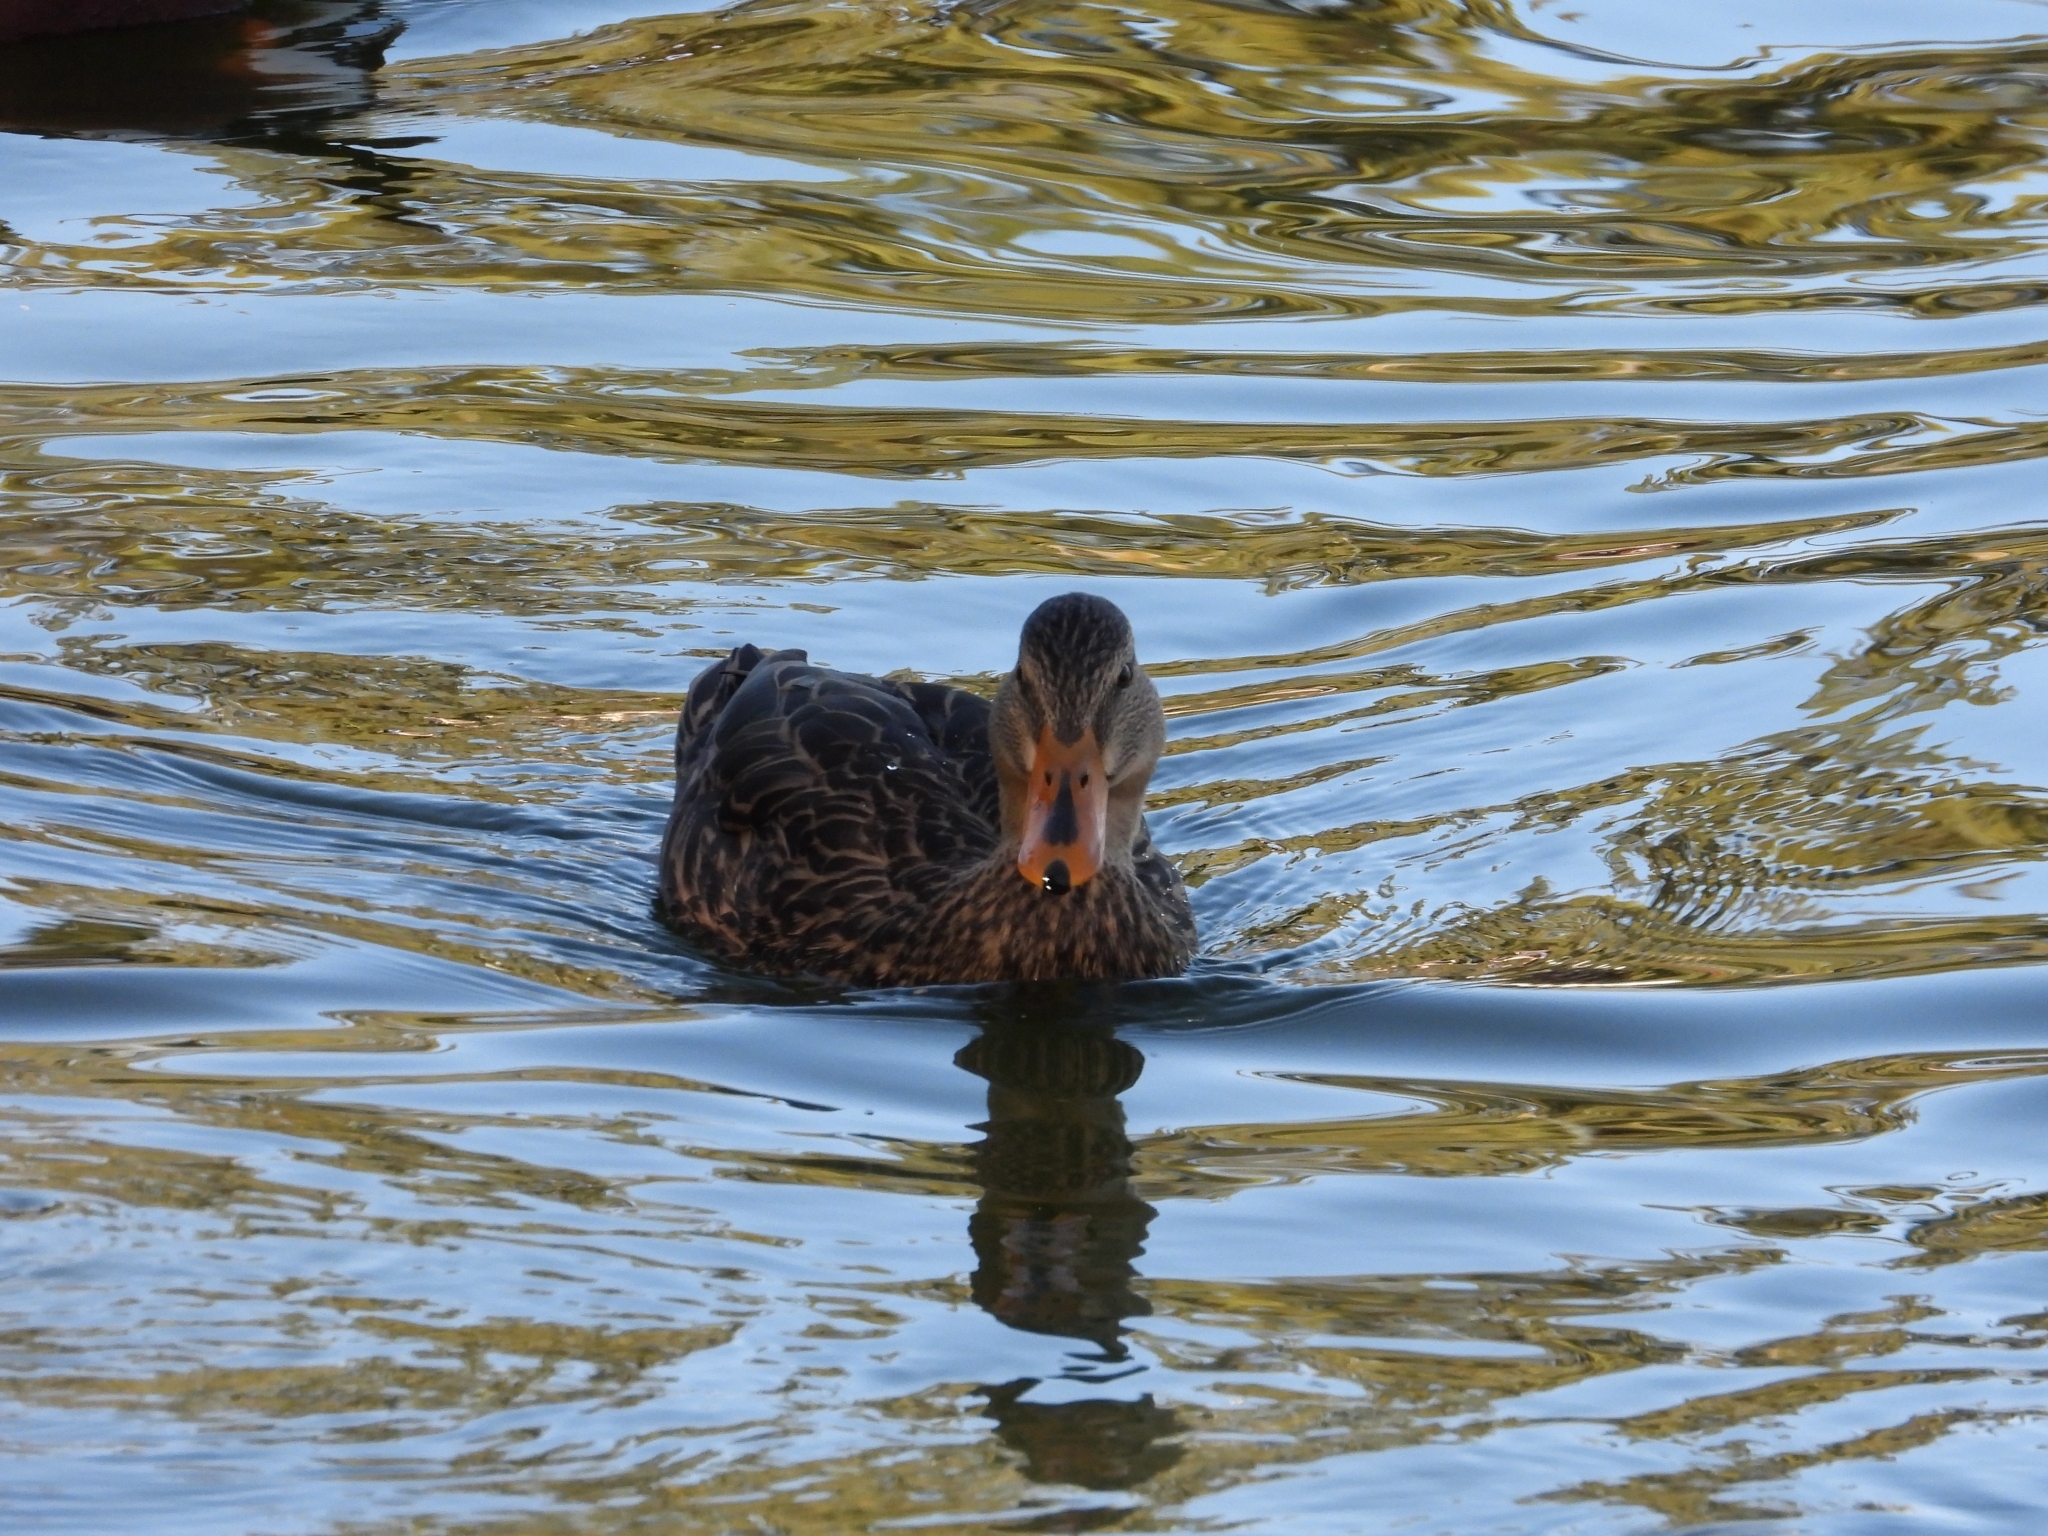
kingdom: Animalia
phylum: Chordata
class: Aves
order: Anseriformes
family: Anatidae
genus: Anas
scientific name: Anas diazi
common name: Mexican duck
